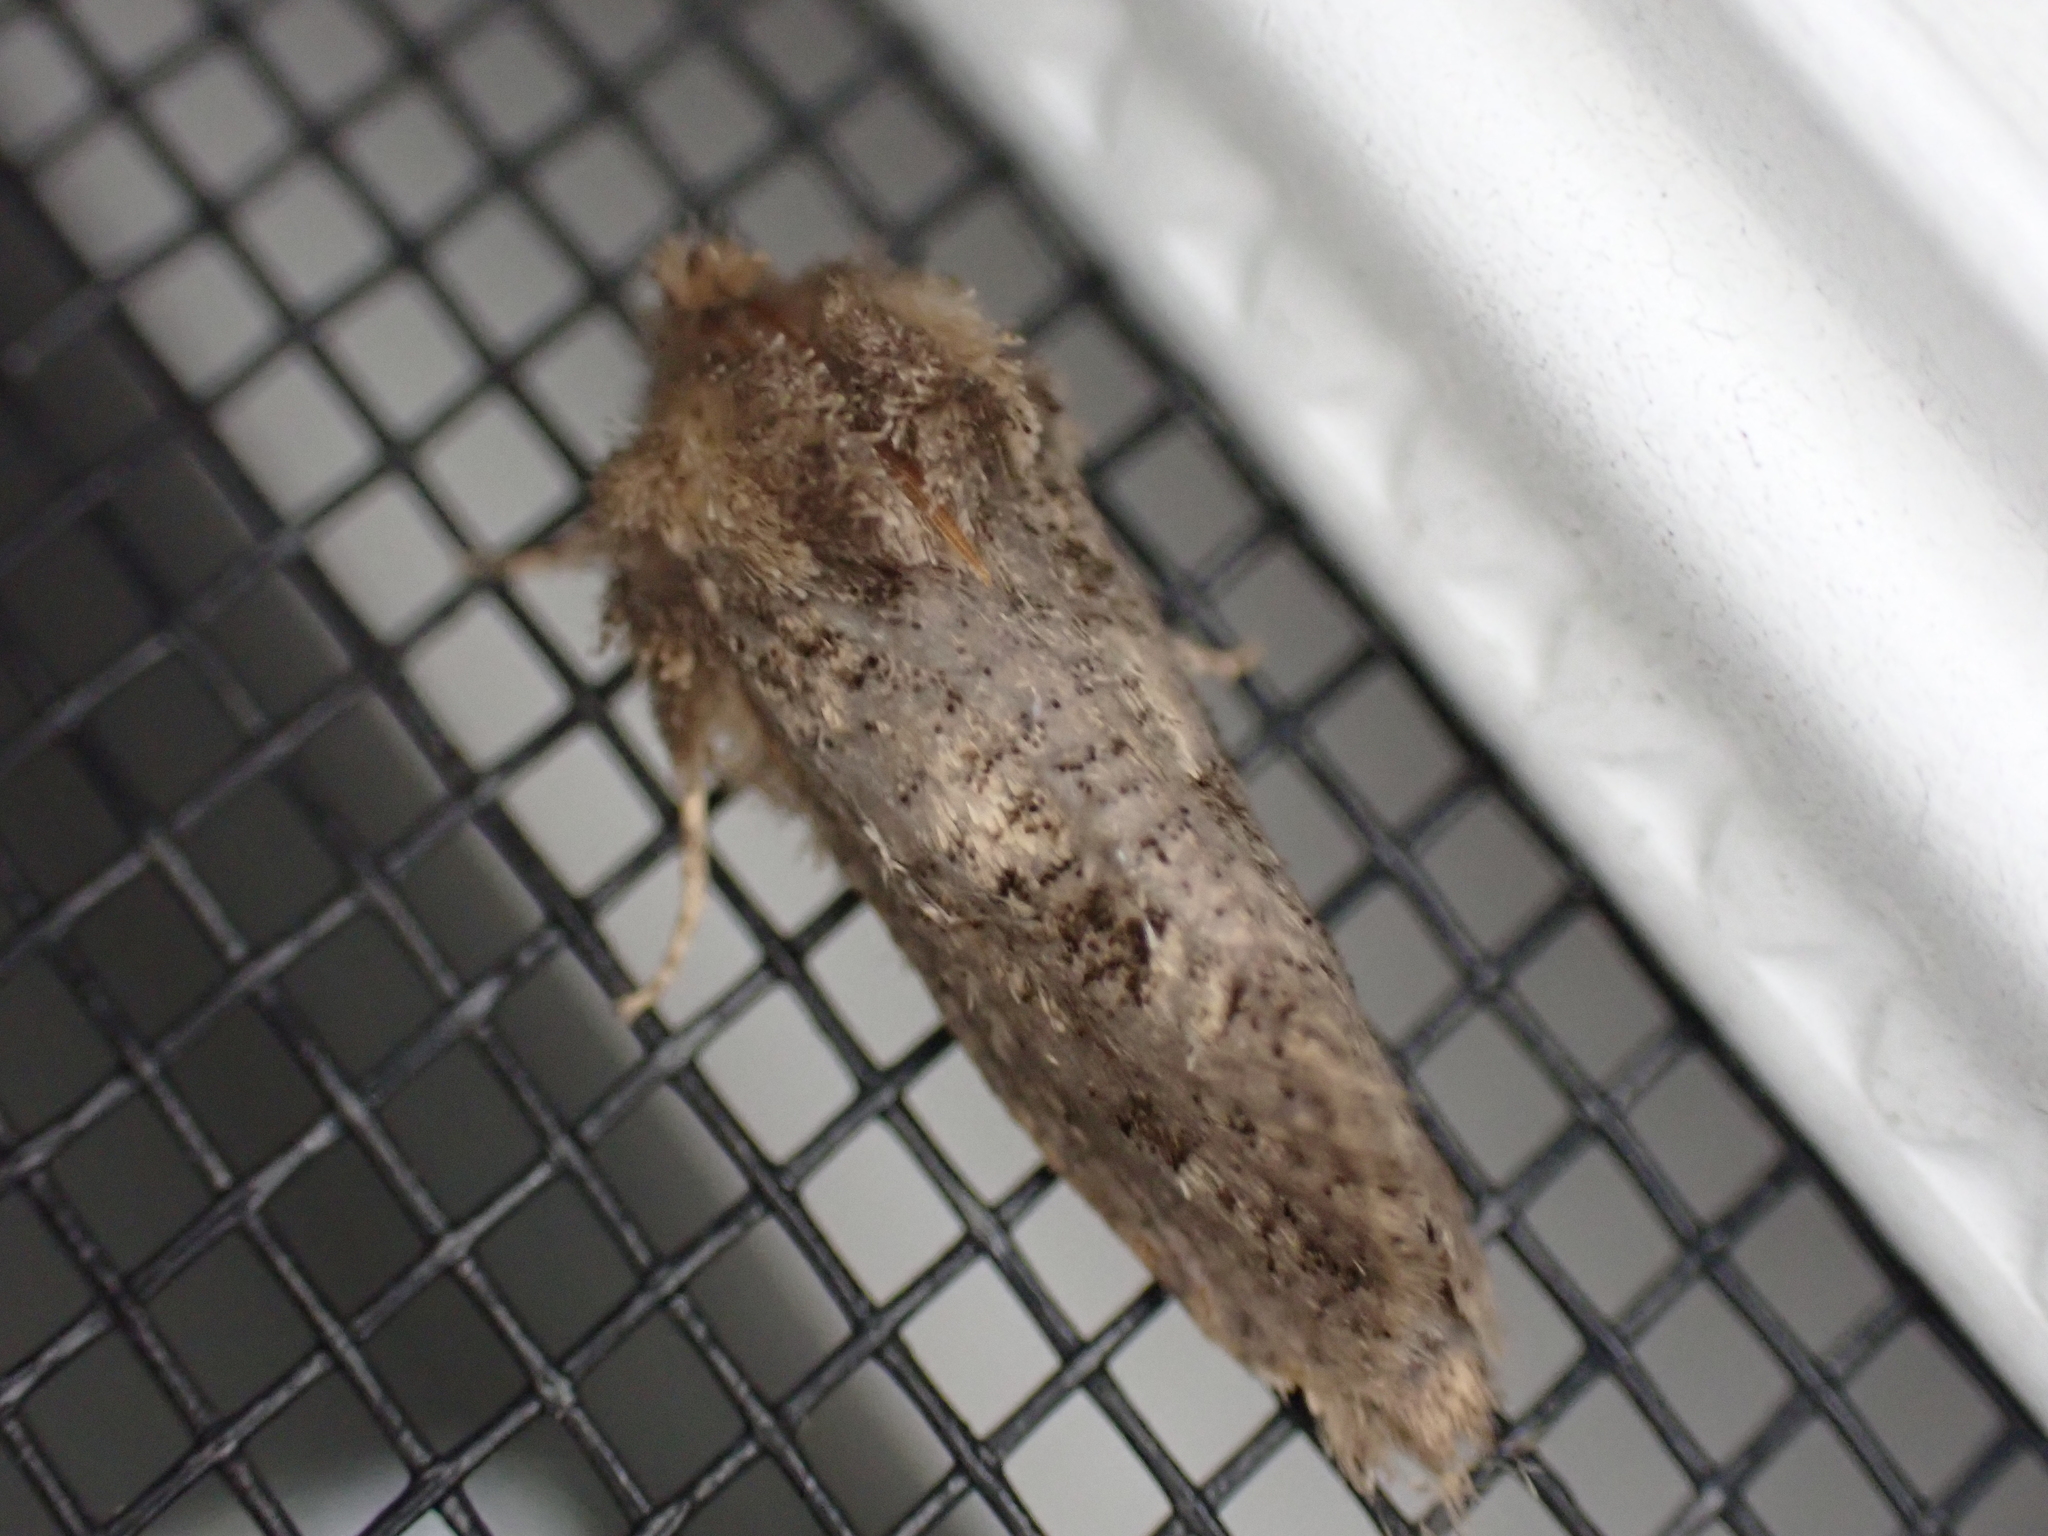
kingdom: Animalia
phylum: Arthropoda
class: Insecta
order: Lepidoptera
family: Tineidae
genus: Acrolophus
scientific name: Acrolophus arcanella
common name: Arcane grass tubeworm moth
